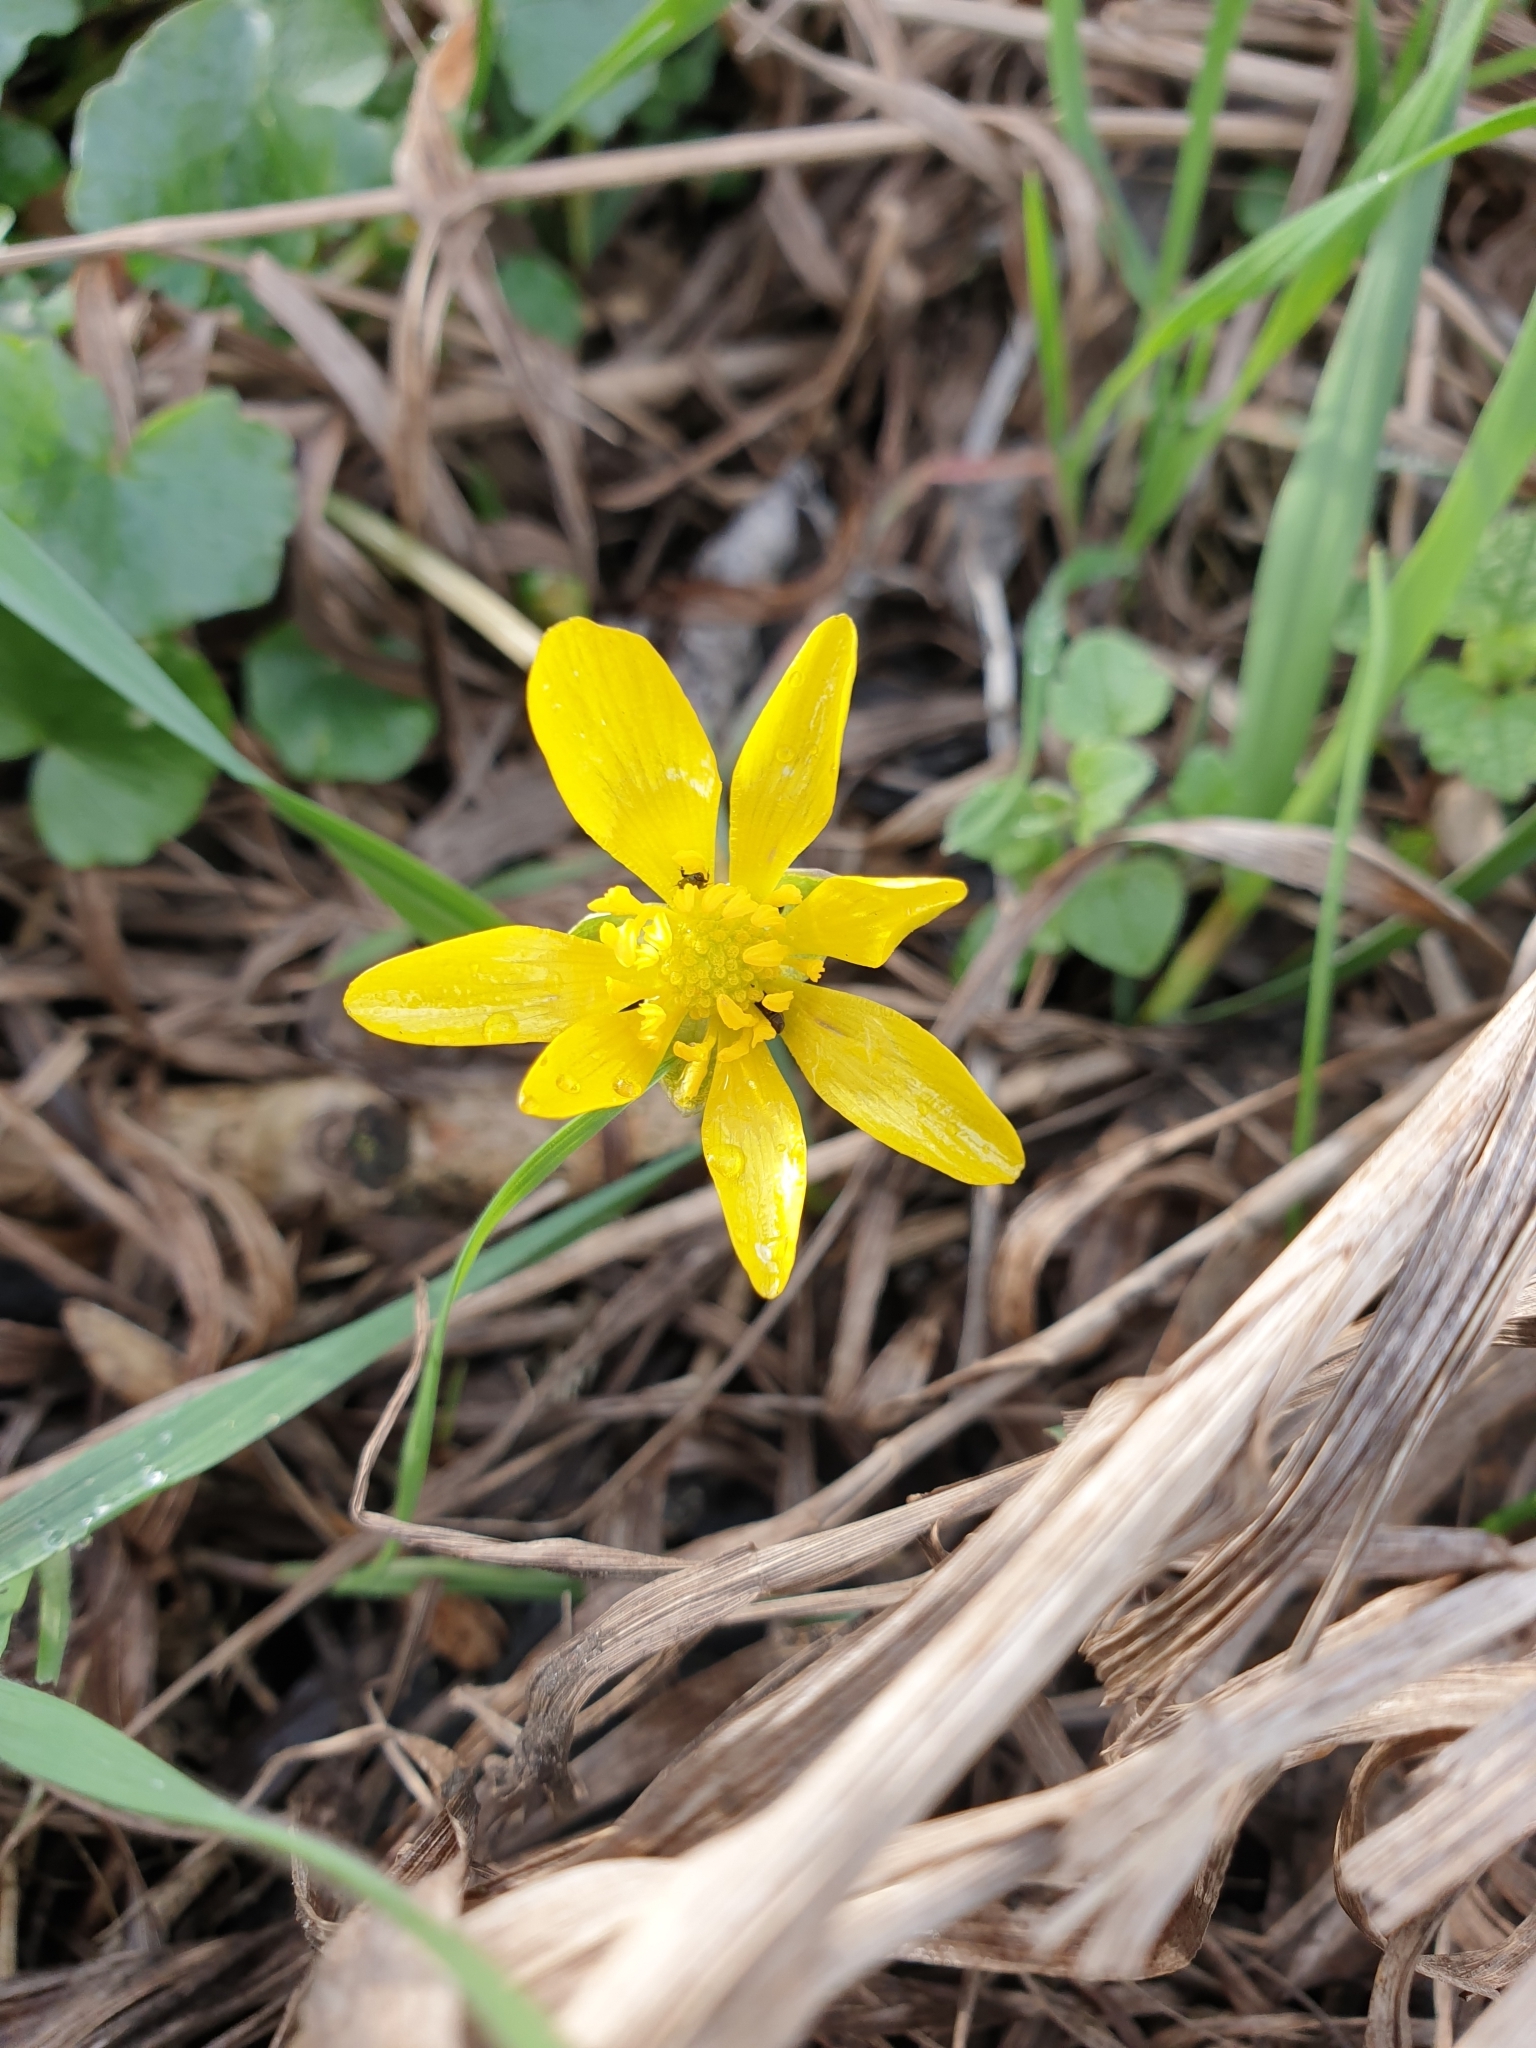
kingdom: Plantae
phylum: Tracheophyta
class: Magnoliopsida
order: Ranunculales
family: Ranunculaceae
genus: Ficaria
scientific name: Ficaria verna
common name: Lesser celandine
